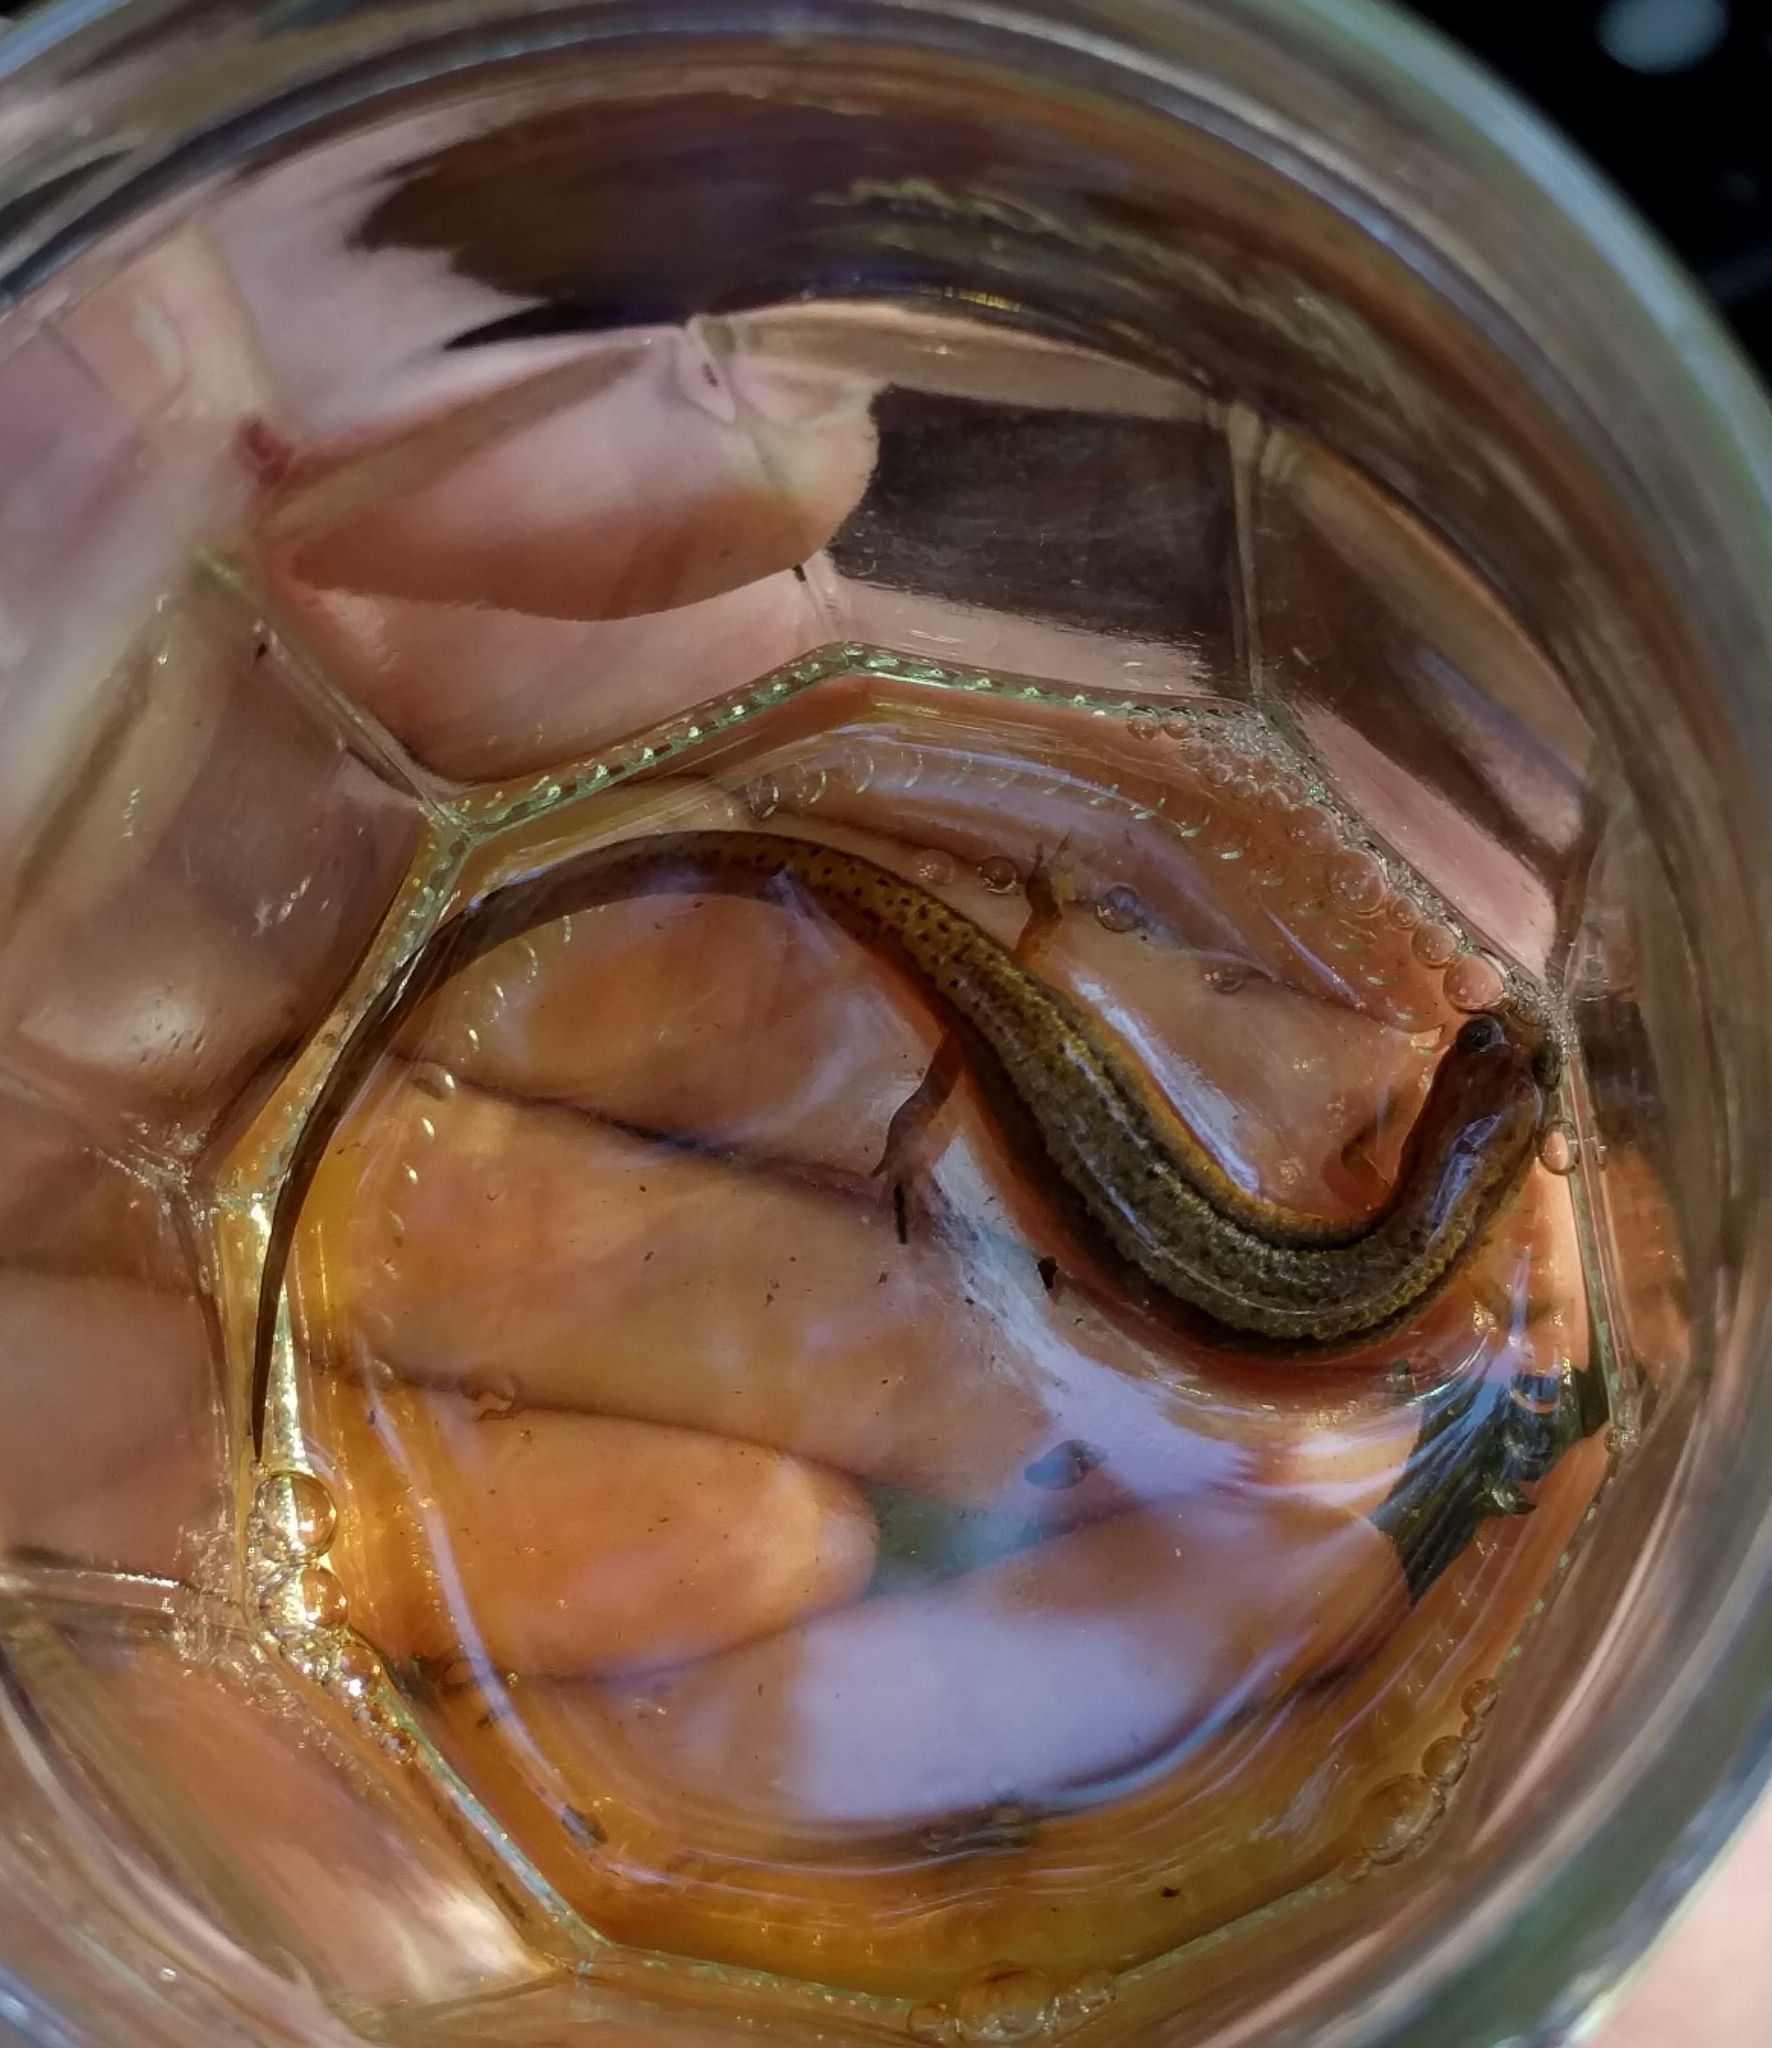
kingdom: Animalia
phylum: Chordata
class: Amphibia
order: Caudata
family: Plethodontidae
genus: Eurycea
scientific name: Eurycea bislineata
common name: Northern two-lined salamander
